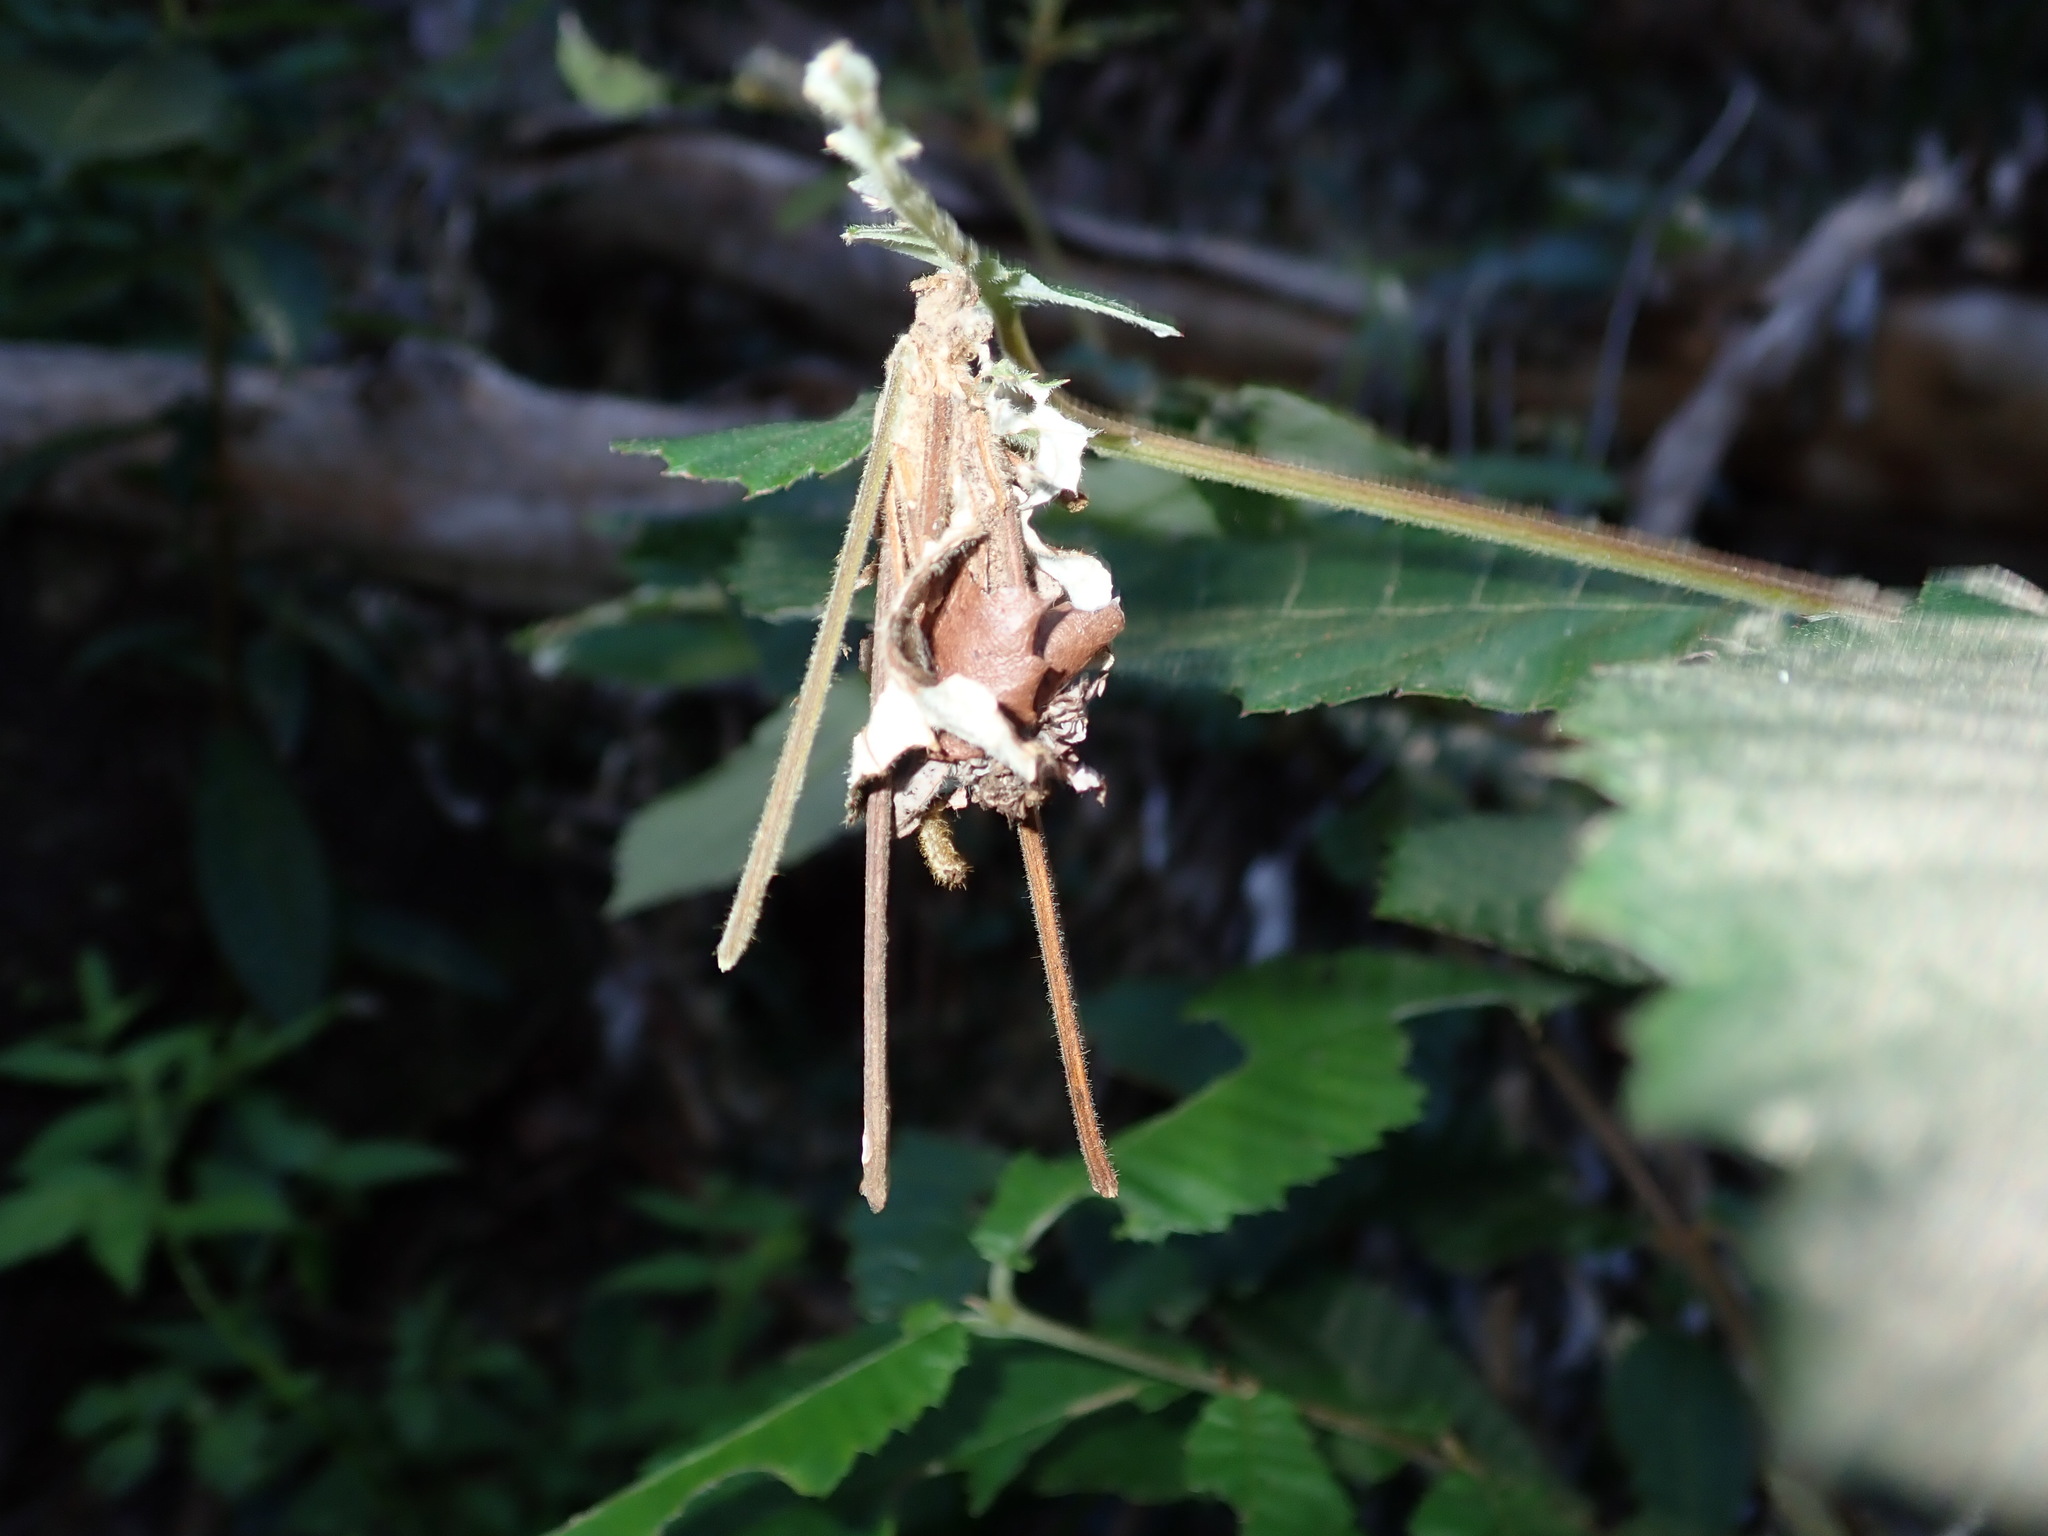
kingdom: Animalia
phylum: Arthropoda
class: Insecta
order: Lepidoptera
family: Psychidae
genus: Metura
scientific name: Metura elongatus
